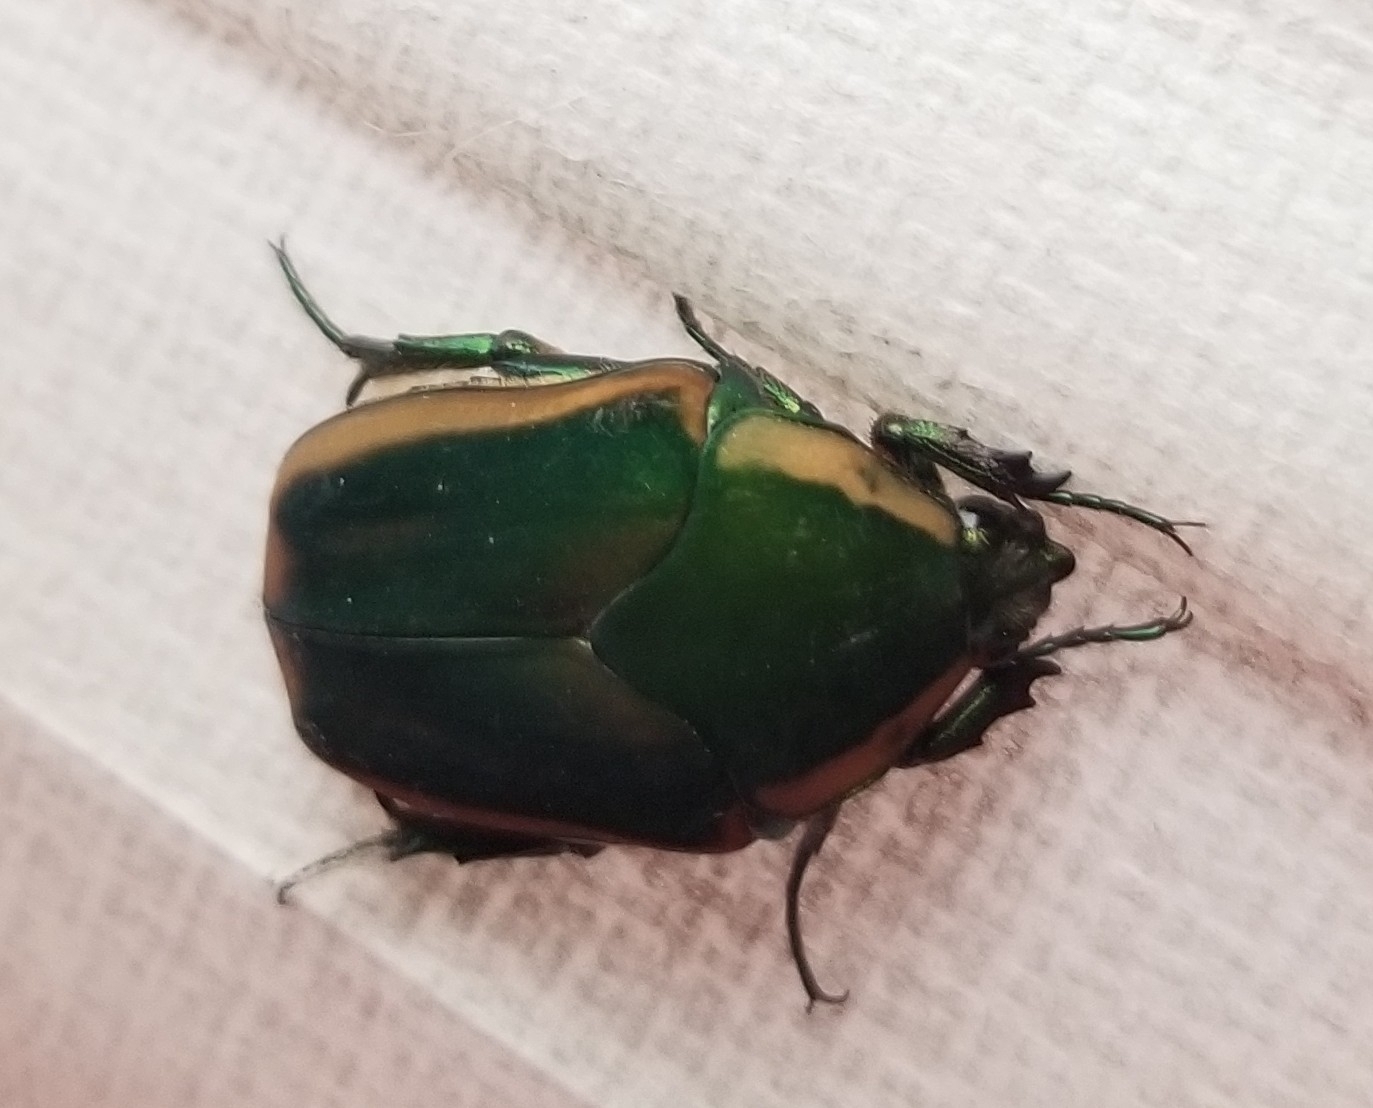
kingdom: Animalia
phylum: Arthropoda
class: Insecta
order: Coleoptera
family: Scarabaeidae
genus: Cotinis
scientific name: Cotinis nitida
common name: Common green june beetle
